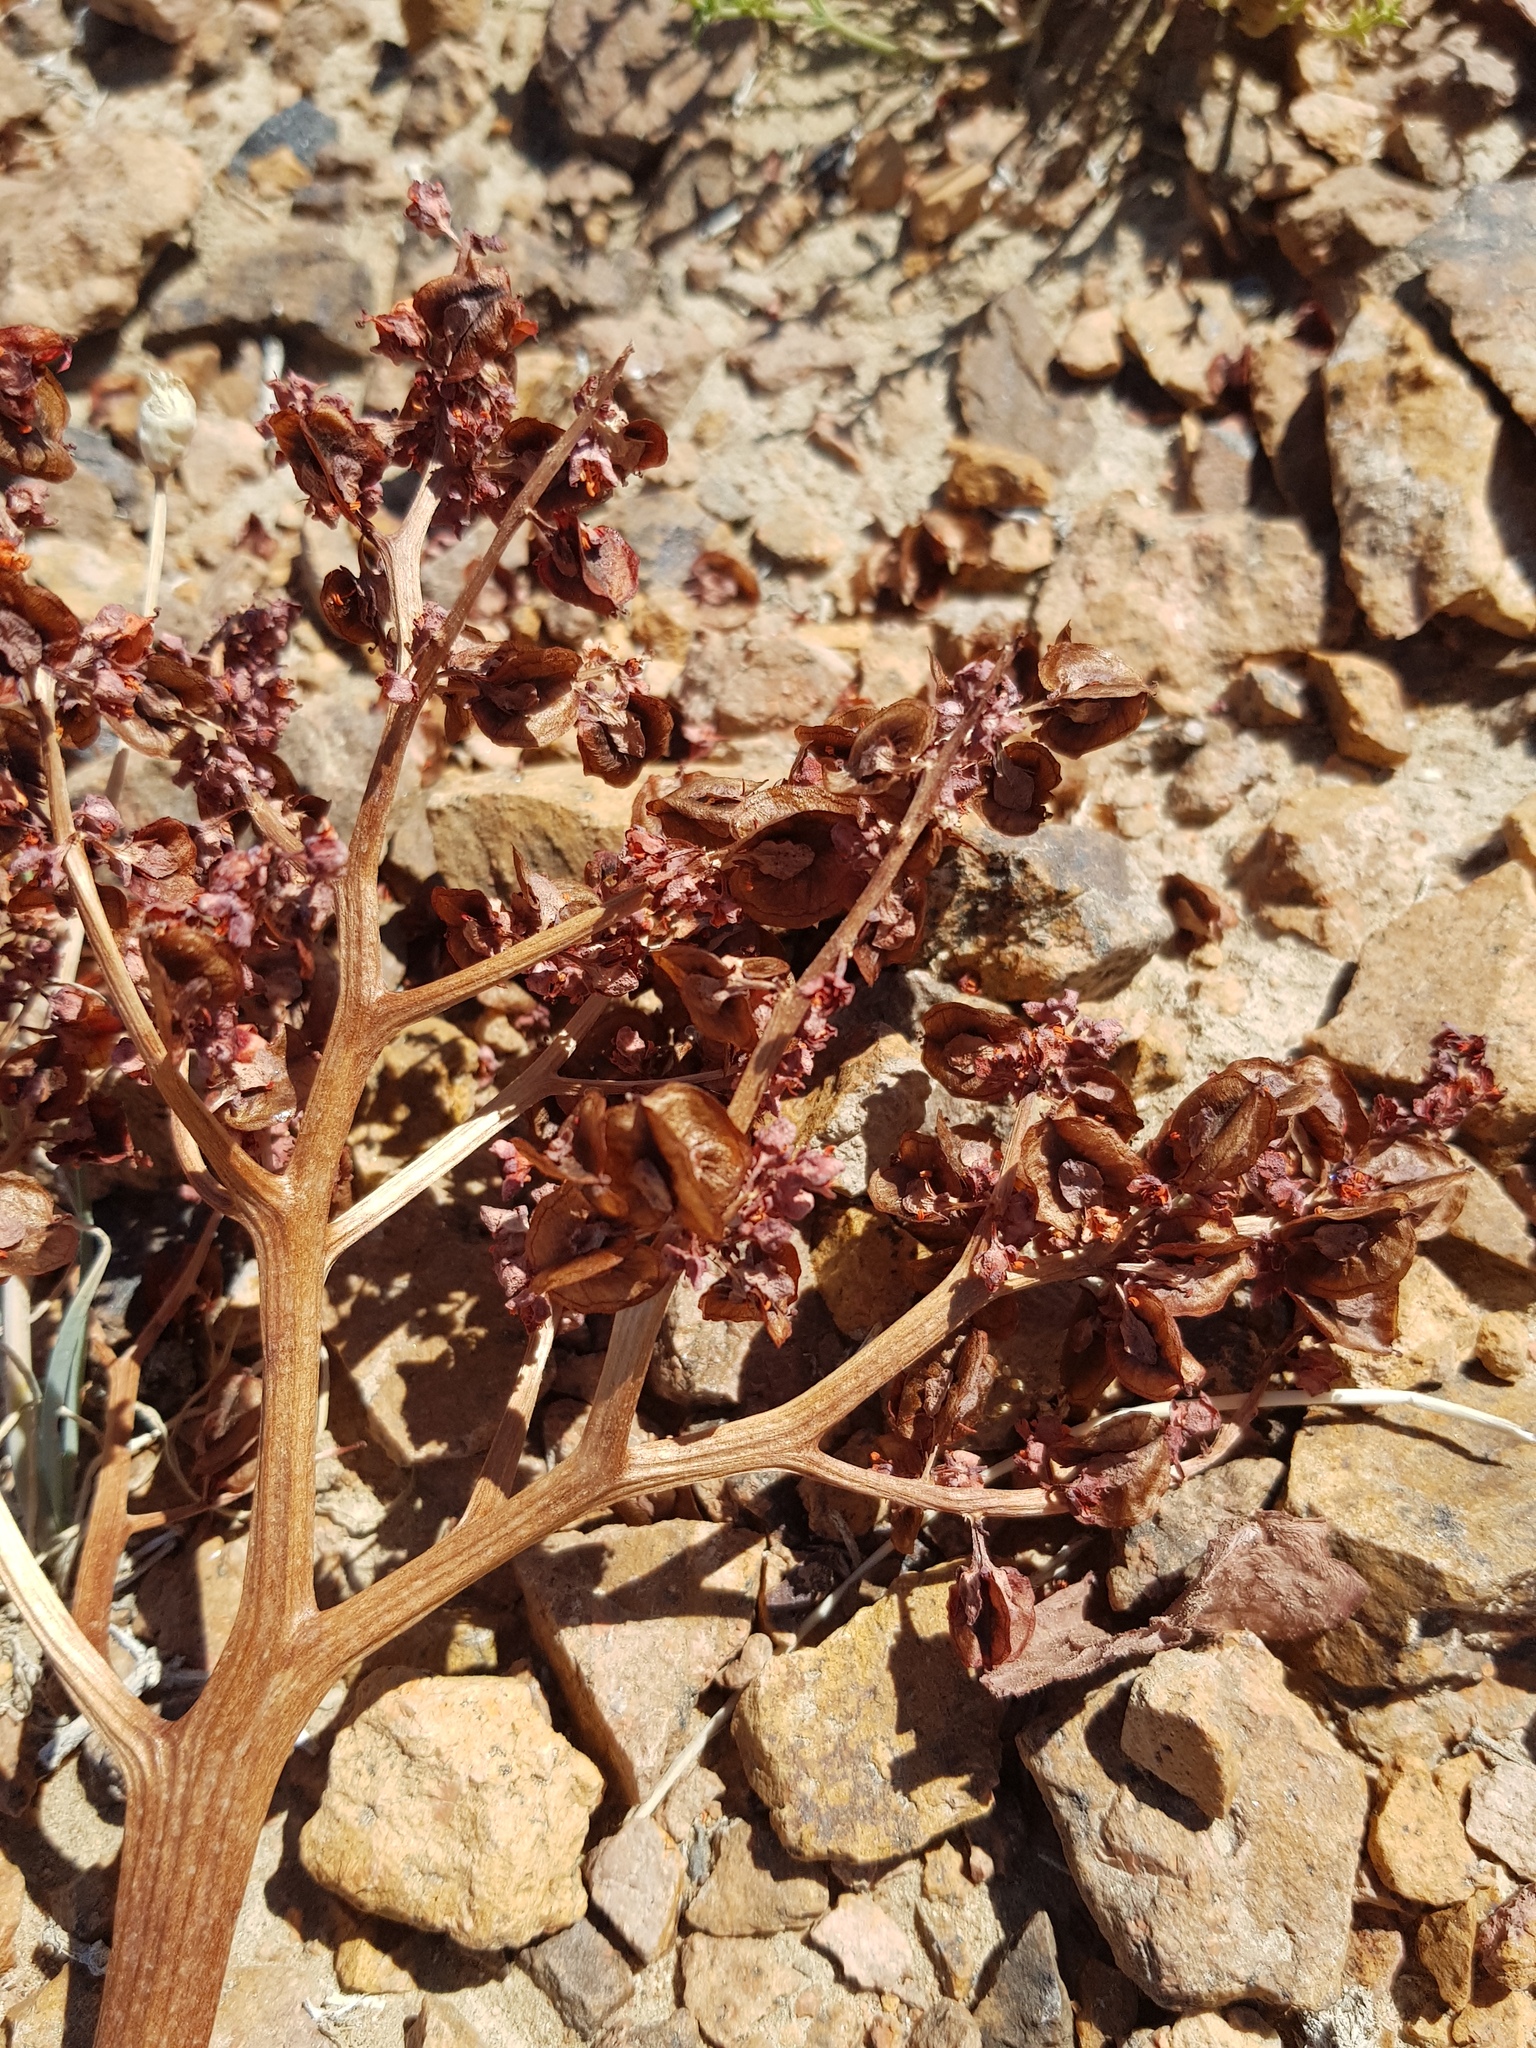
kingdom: Plantae
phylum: Tracheophyta
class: Magnoliopsida
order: Caryophyllales
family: Polygonaceae
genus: Rheum
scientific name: Rheum nanum
